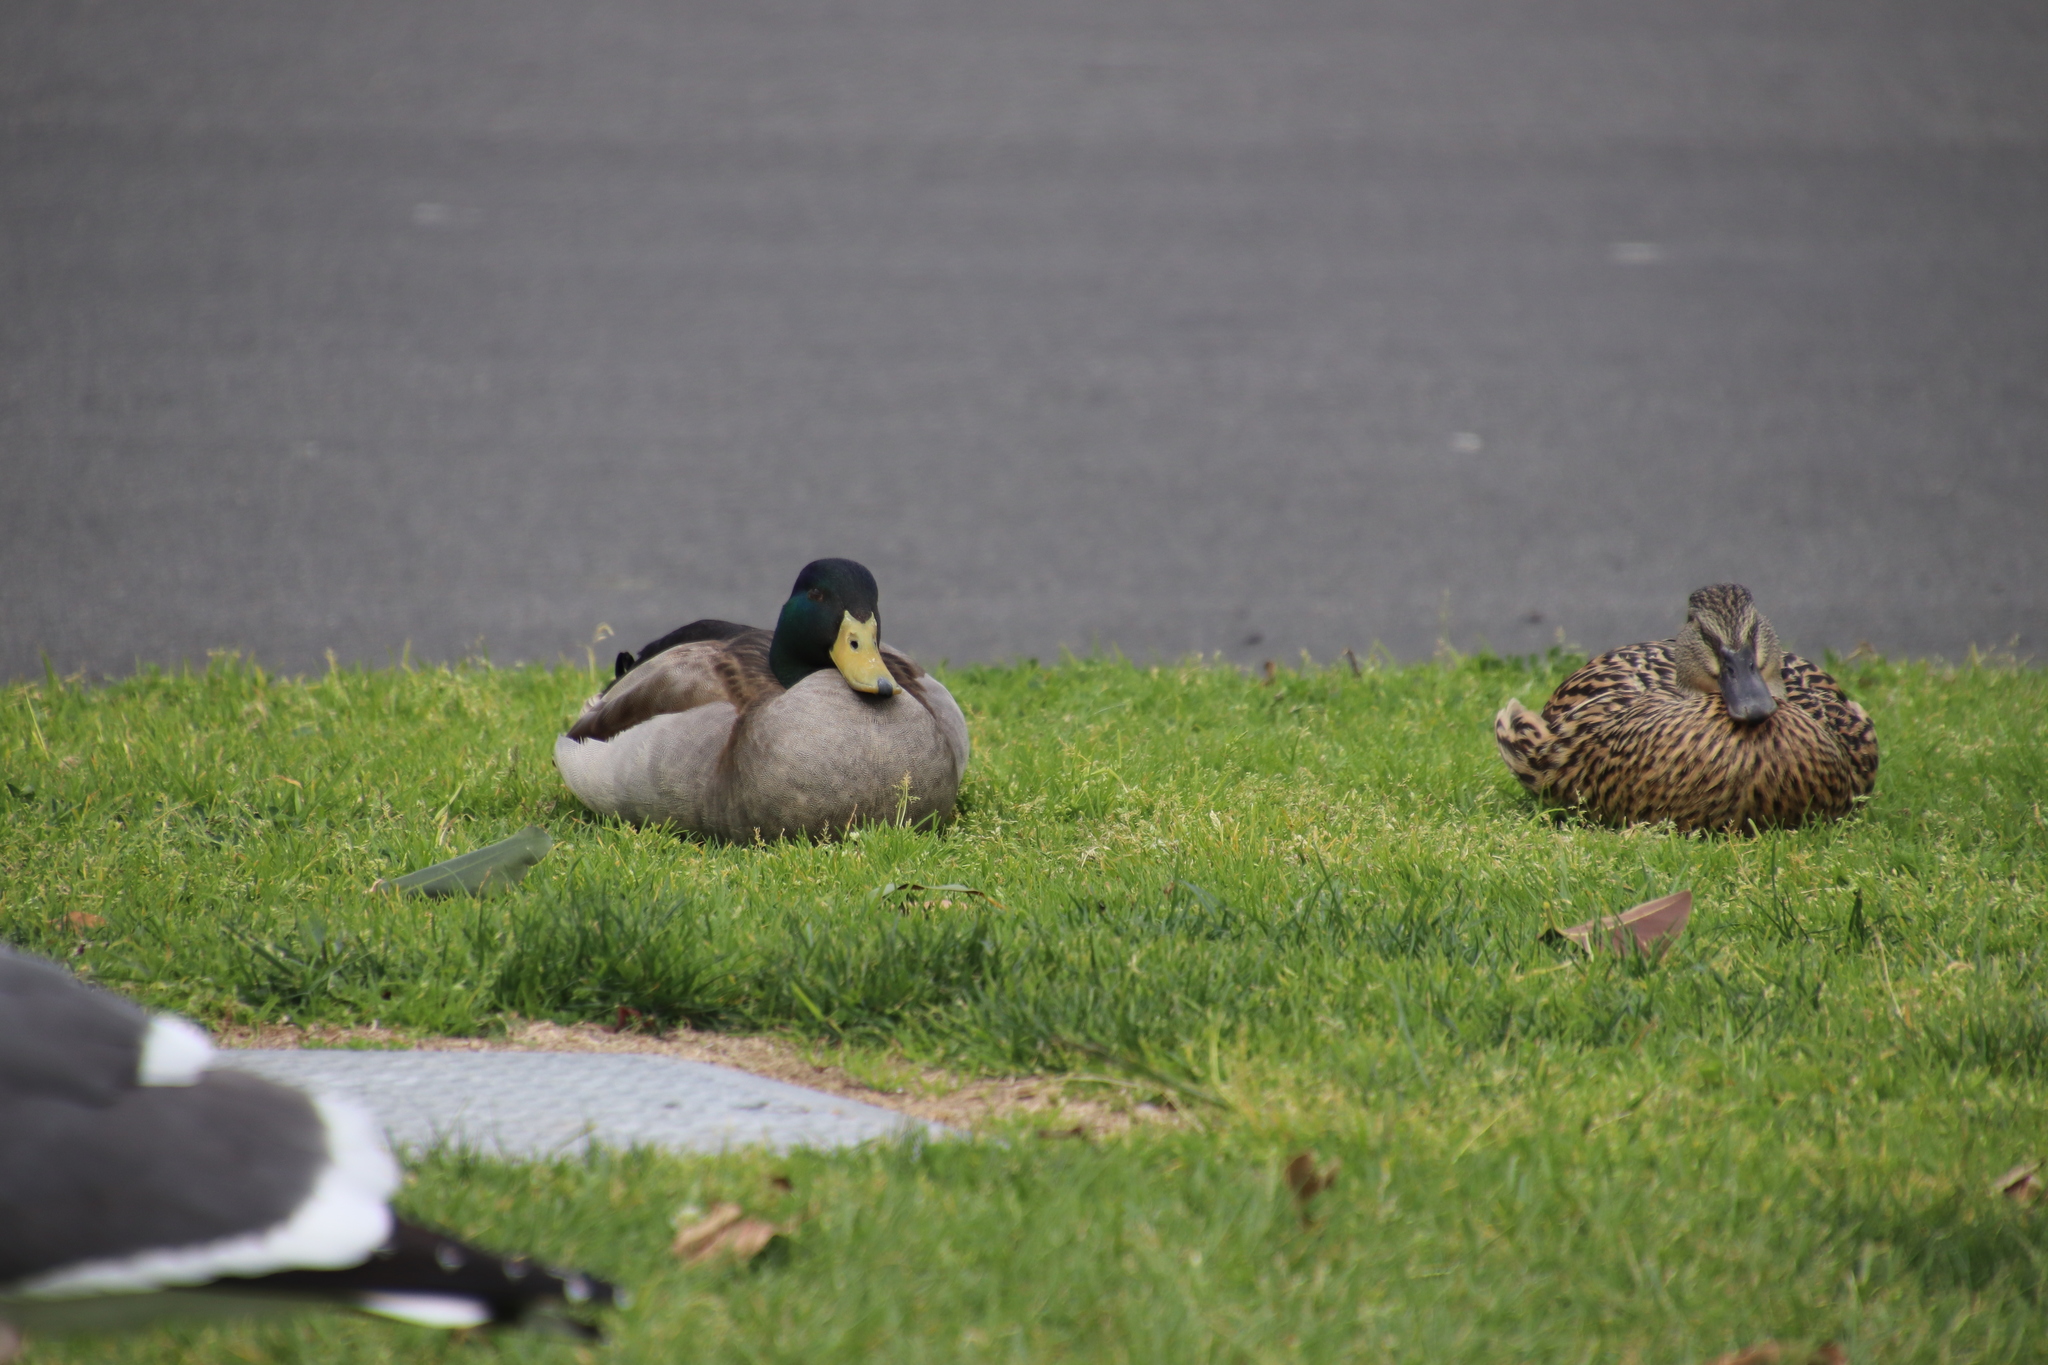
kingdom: Animalia
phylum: Chordata
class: Aves
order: Anseriformes
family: Anatidae
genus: Anas
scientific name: Anas platyrhynchos
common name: Mallard
